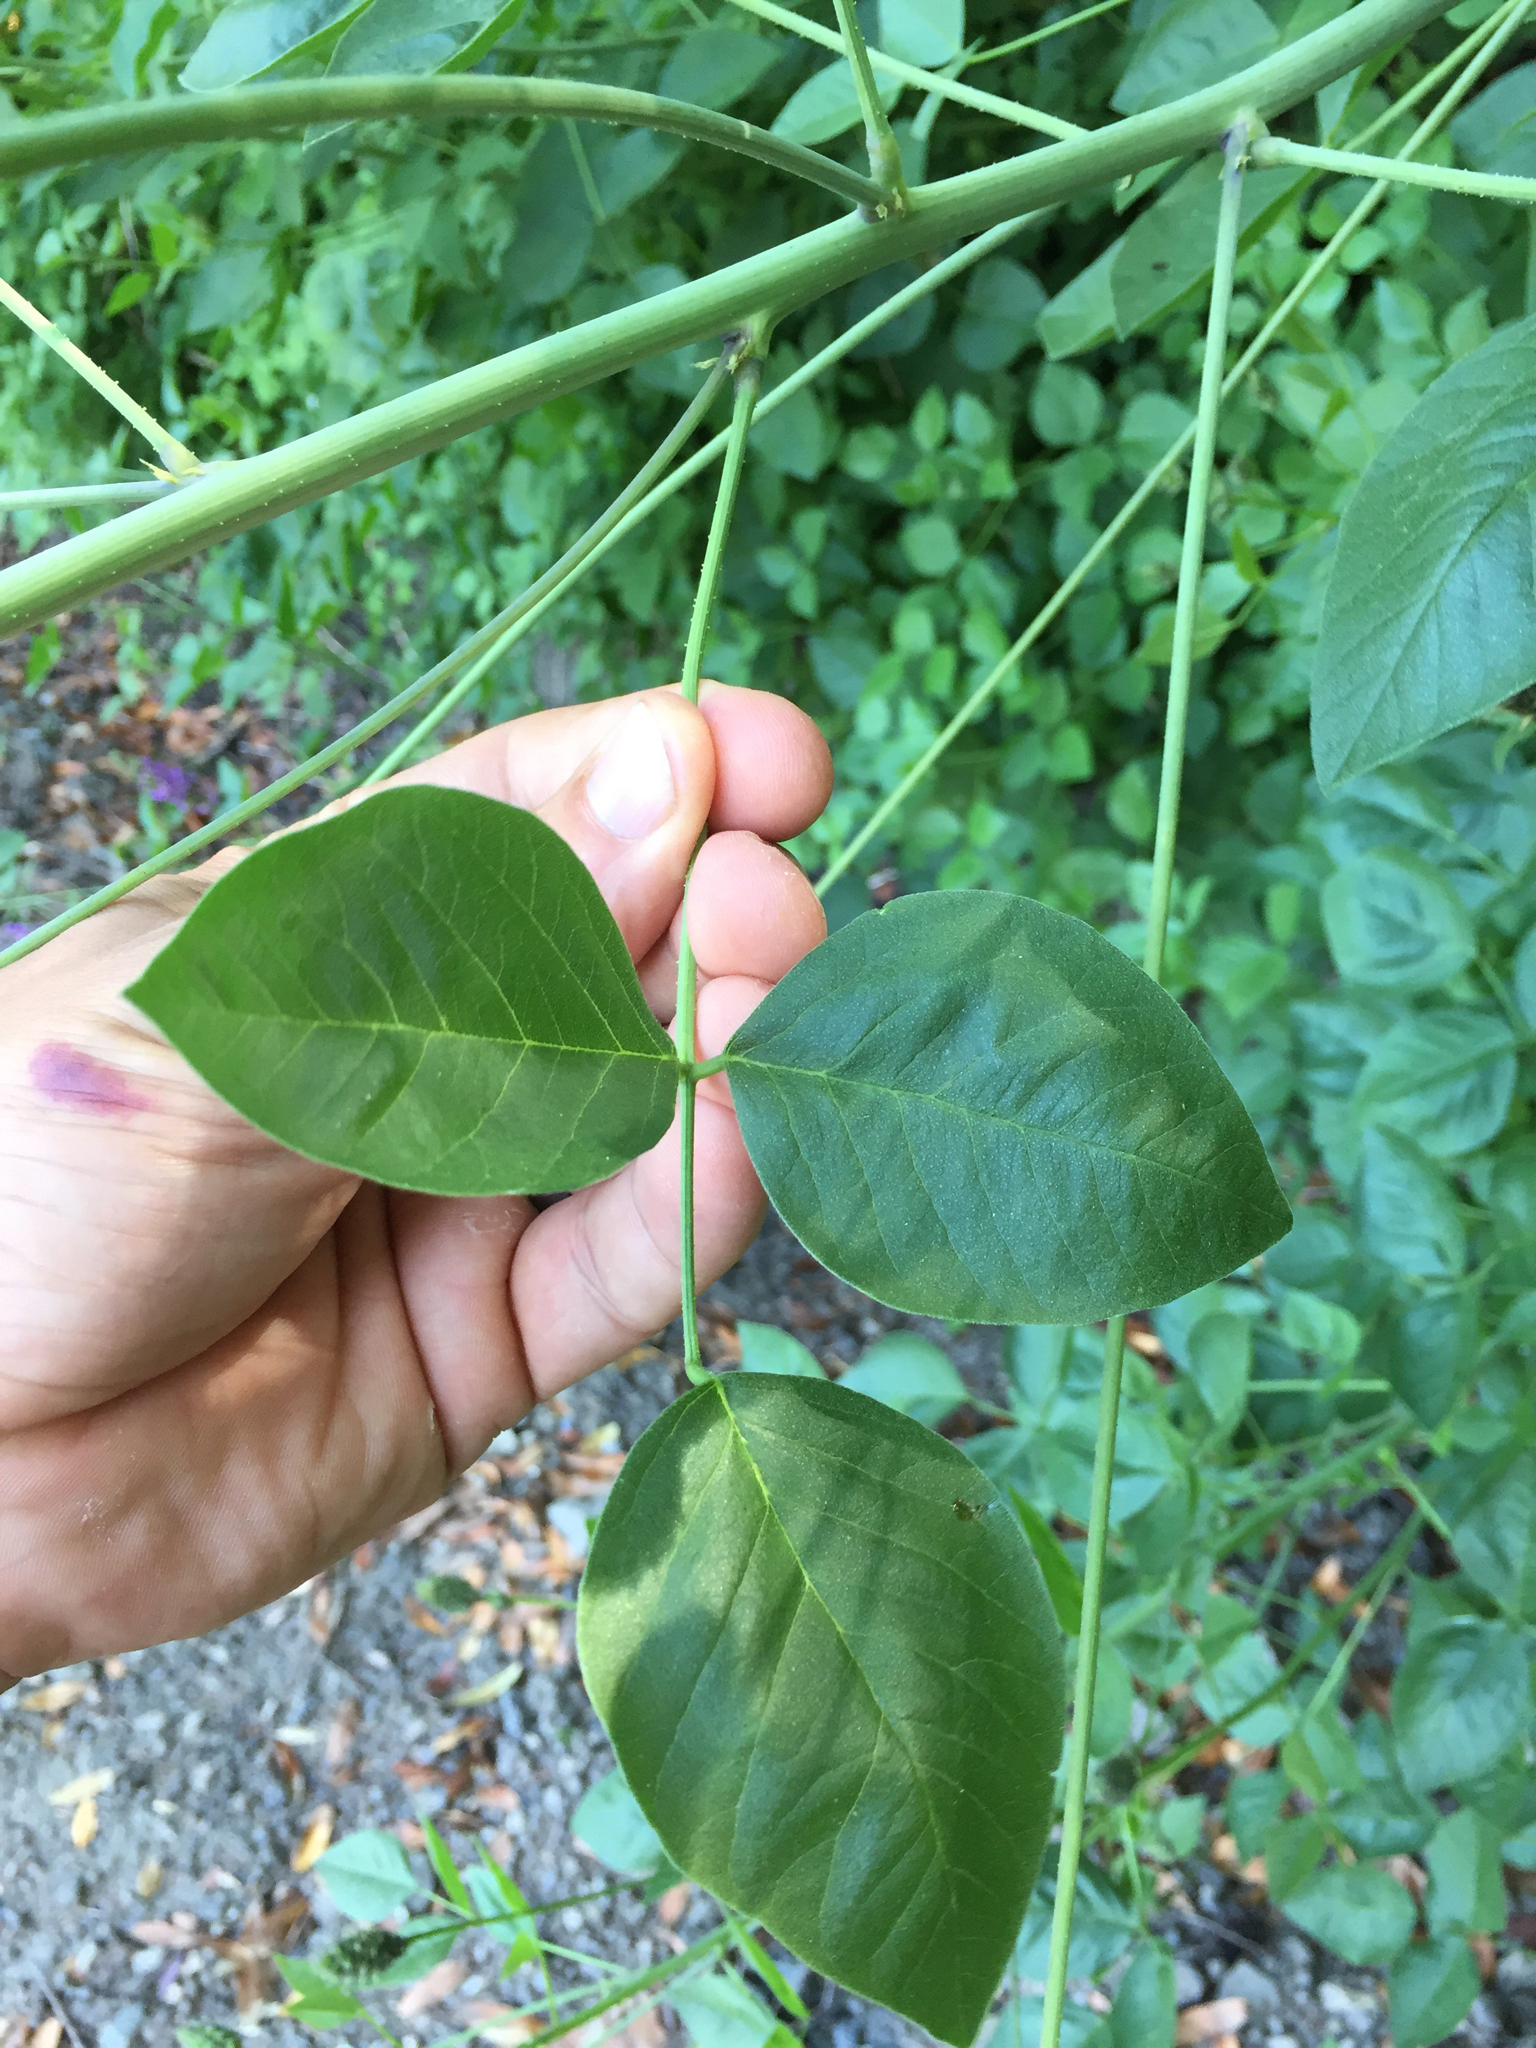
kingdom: Plantae
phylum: Tracheophyta
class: Magnoliopsida
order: Fabales
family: Fabaceae
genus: Hoita
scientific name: Hoita macrostachya
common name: Leatherroot
